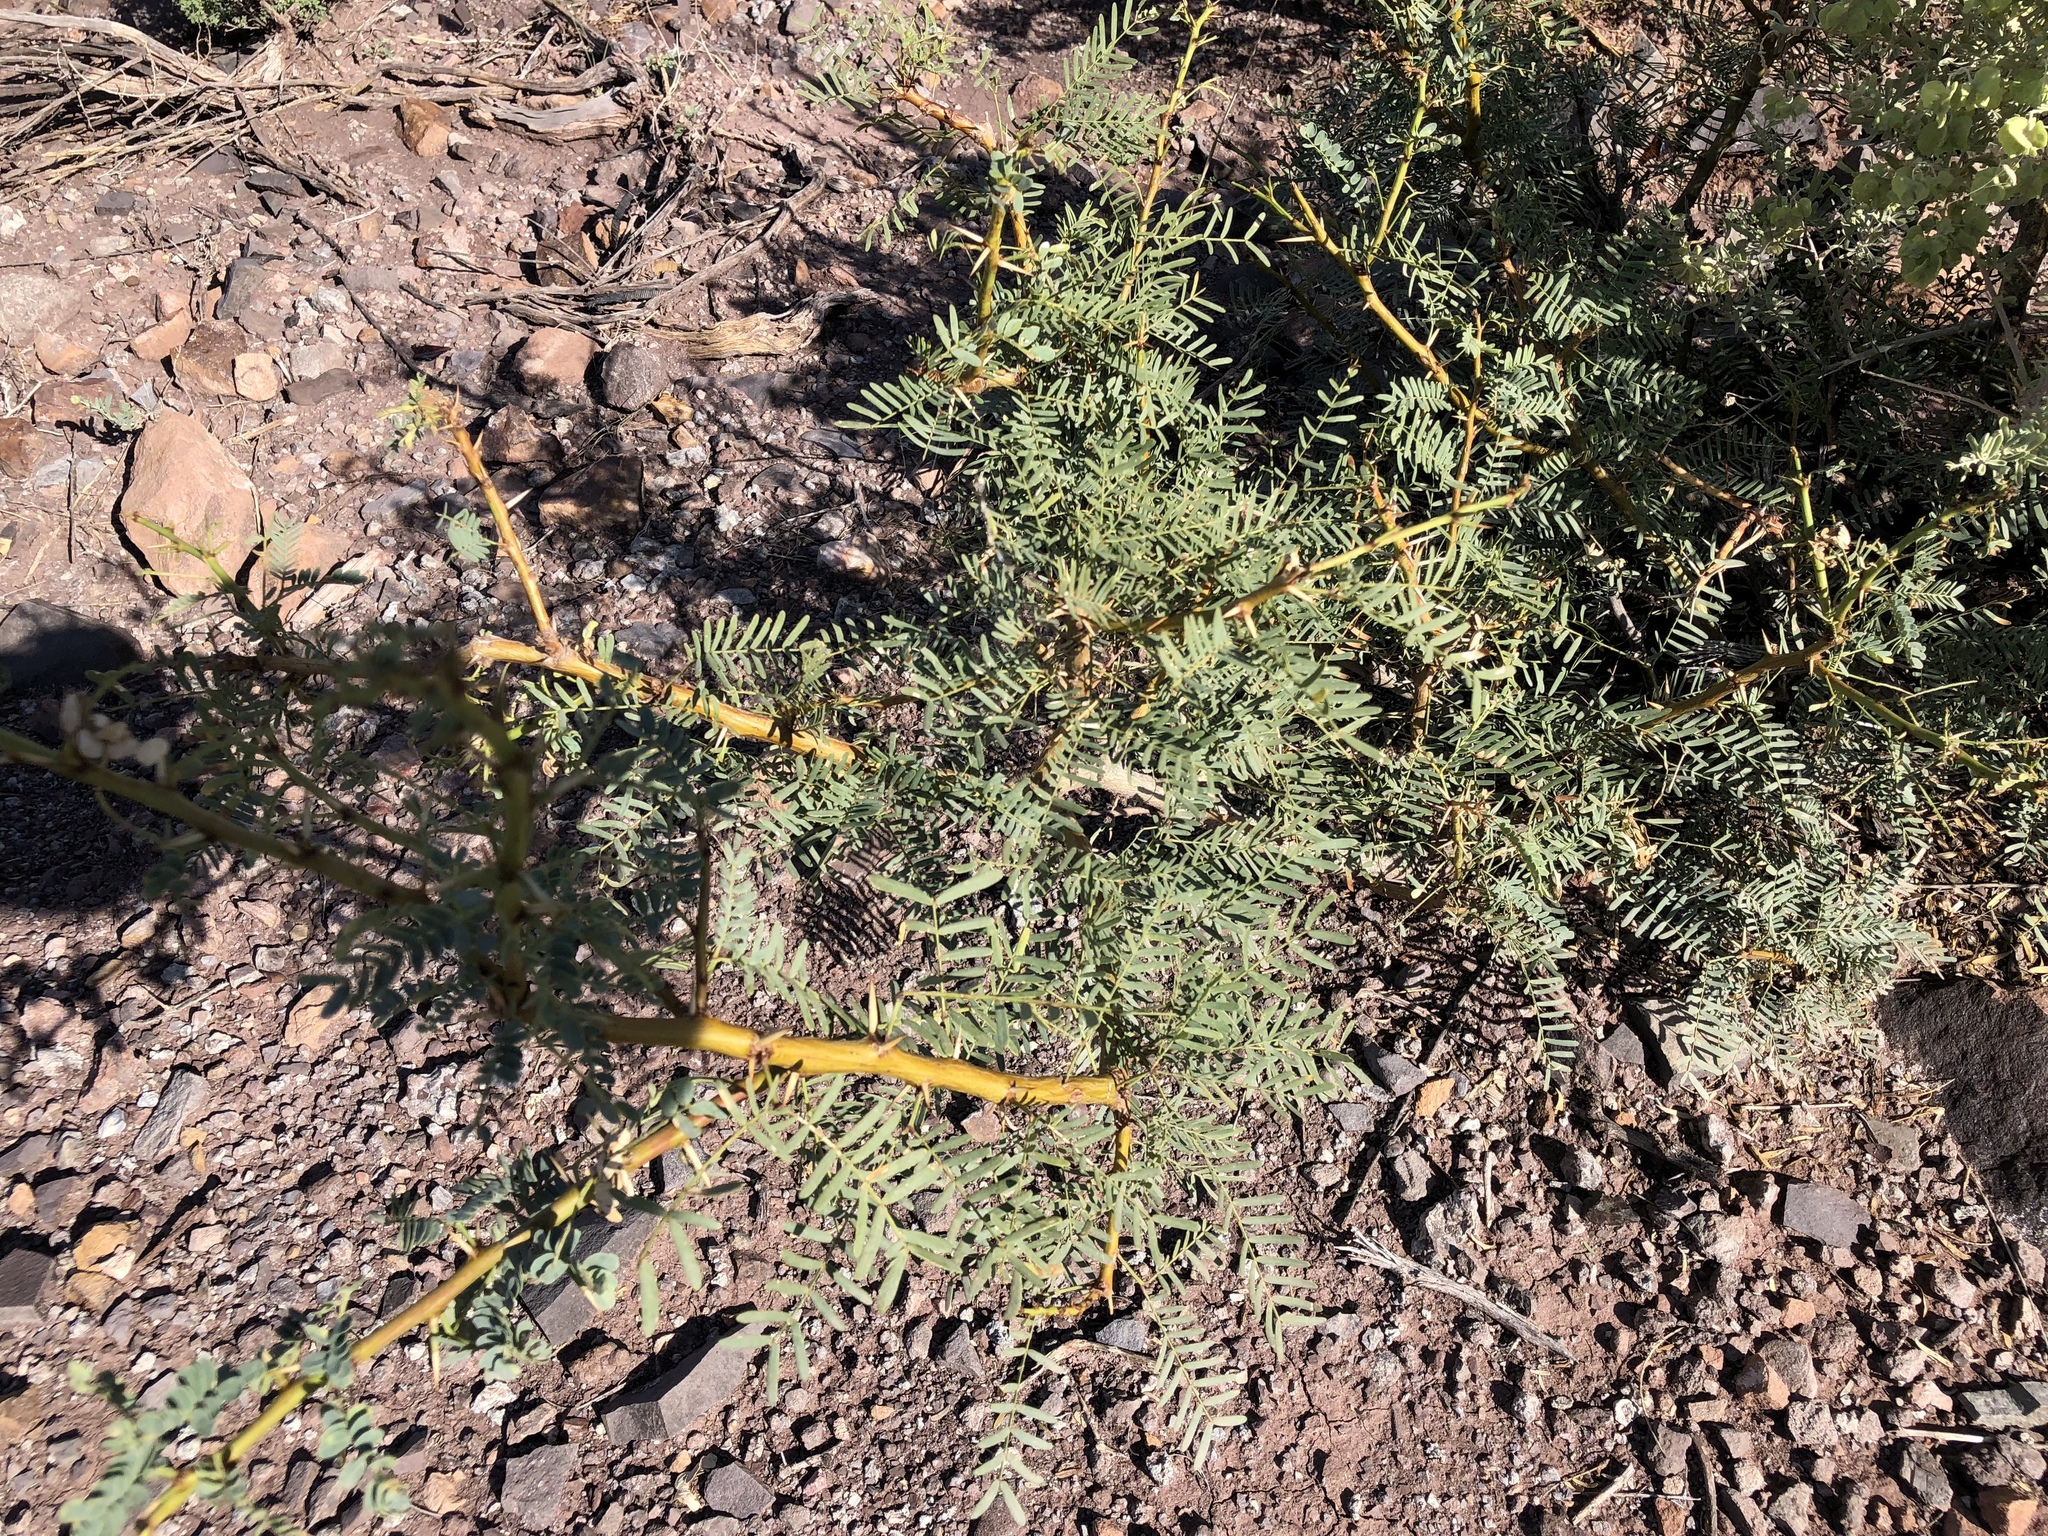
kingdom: Plantae
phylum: Tracheophyta
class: Magnoliopsida
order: Fabales
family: Fabaceae
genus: Prosopis
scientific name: Prosopis glandulosa
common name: Honey mesquite
